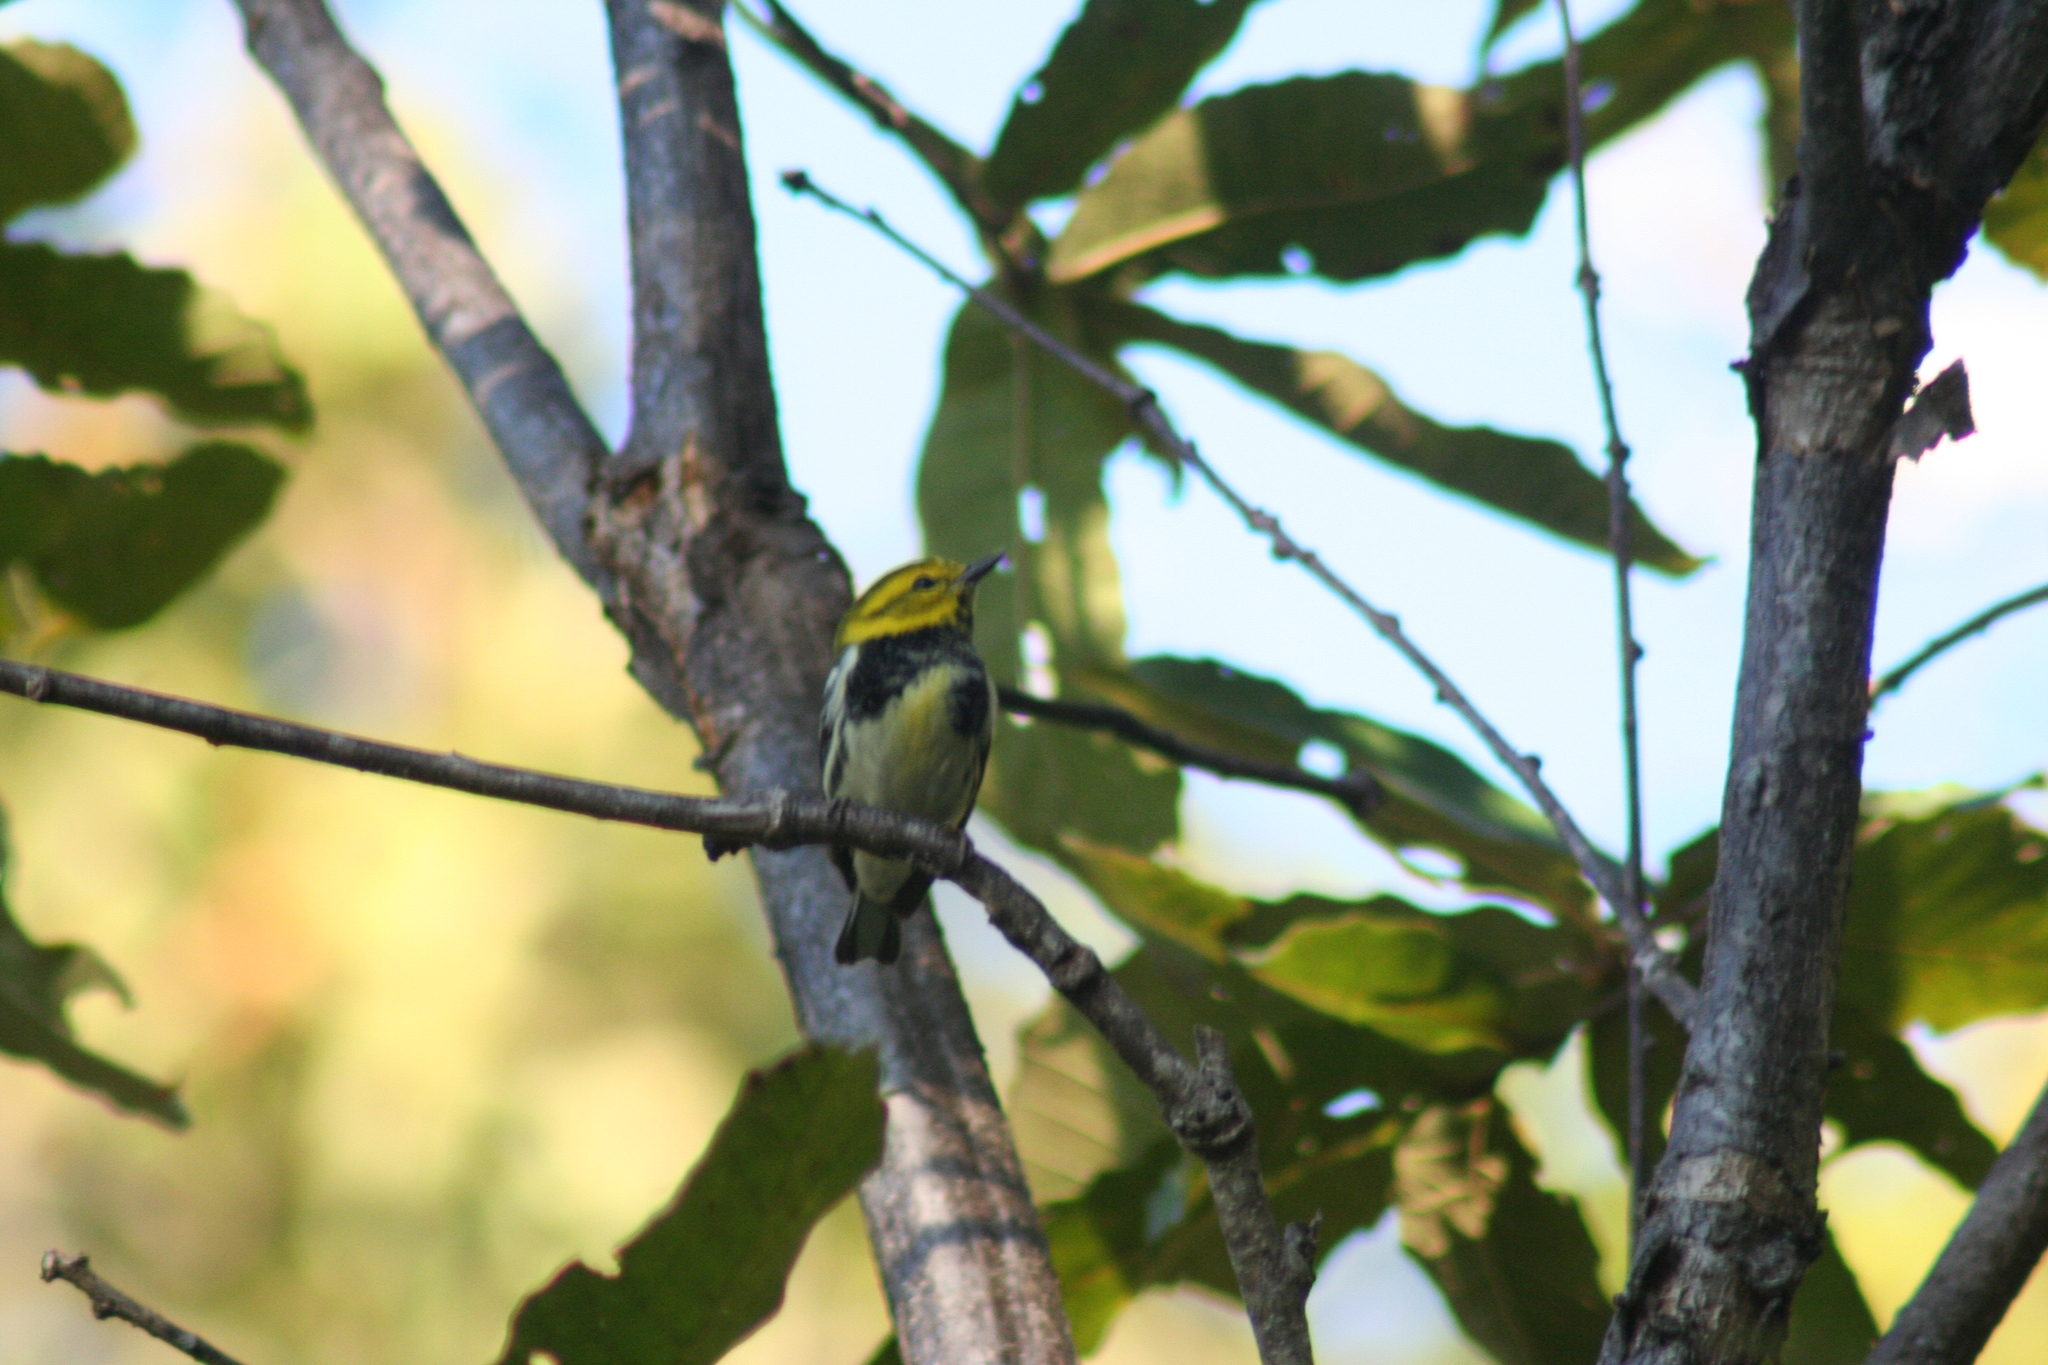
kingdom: Animalia
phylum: Chordata
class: Aves
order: Passeriformes
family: Parulidae
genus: Setophaga
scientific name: Setophaga virens
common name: Black-throated green warbler
